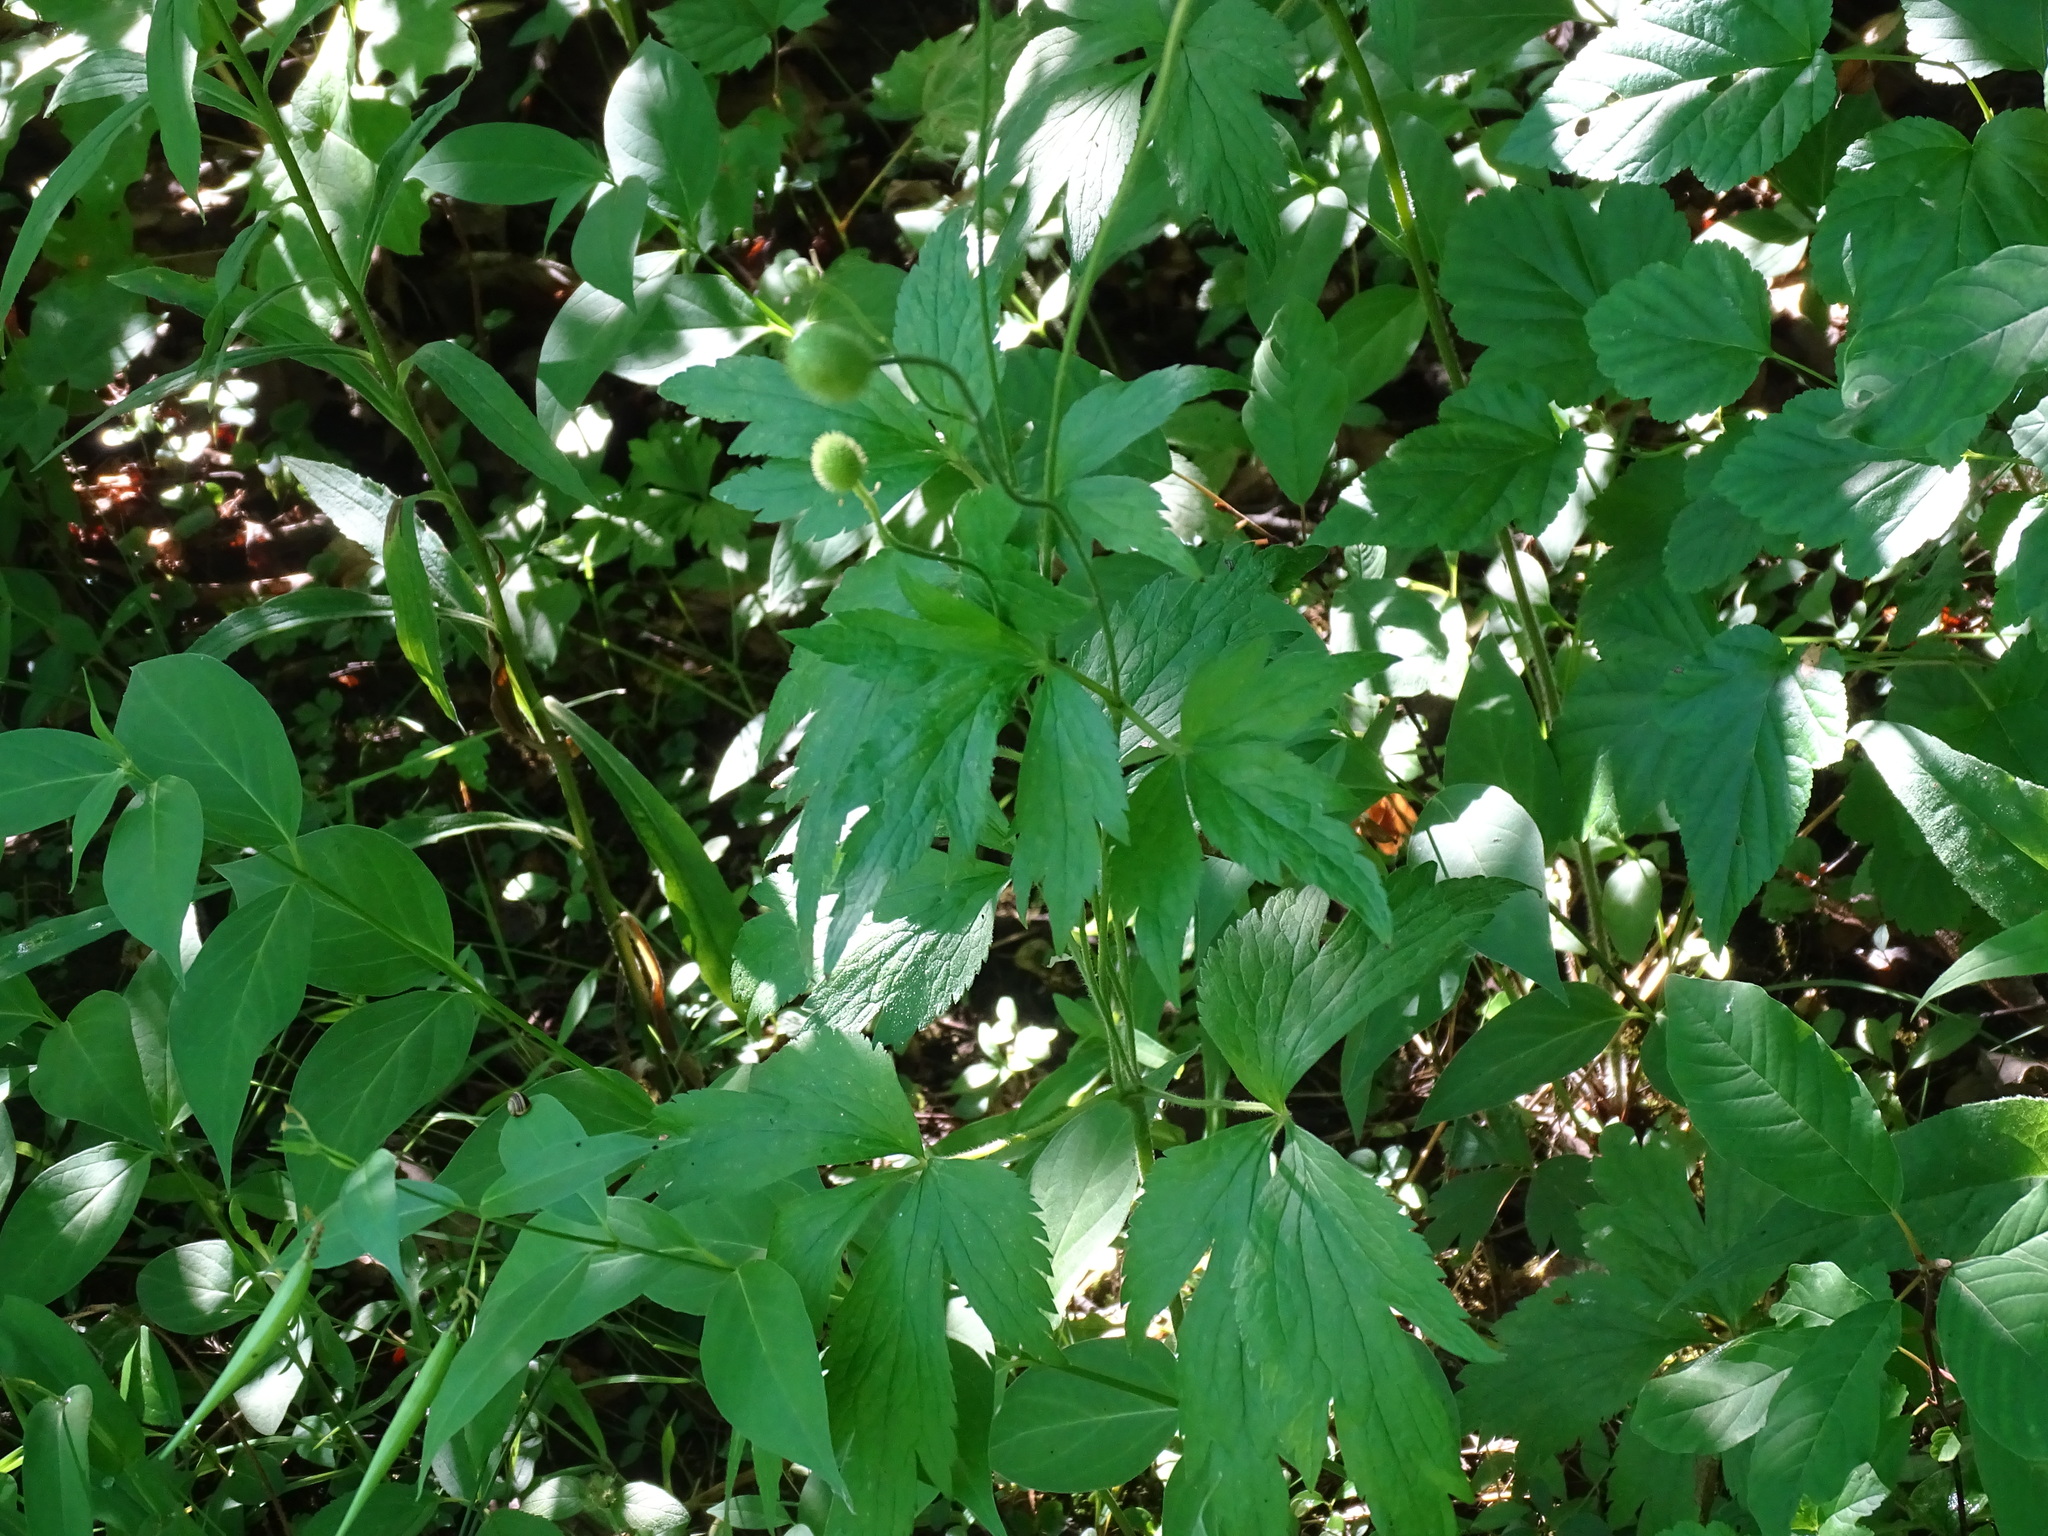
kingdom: Plantae
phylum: Tracheophyta
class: Magnoliopsida
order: Ranunculales
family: Ranunculaceae
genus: Anemone
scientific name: Anemone virginiana
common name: Tall anemone
